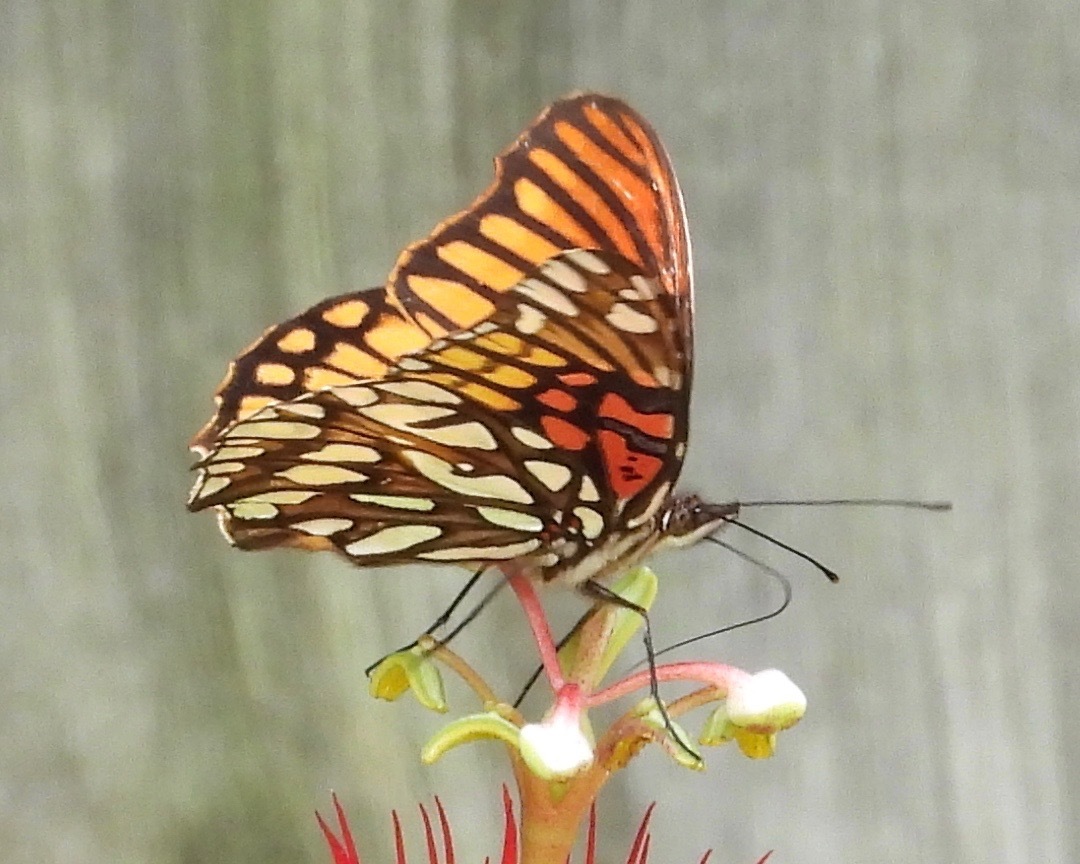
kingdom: Animalia
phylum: Arthropoda
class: Insecta
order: Lepidoptera
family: Nymphalidae
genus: Dione
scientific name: Dione moneta
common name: Mexican silverspot
